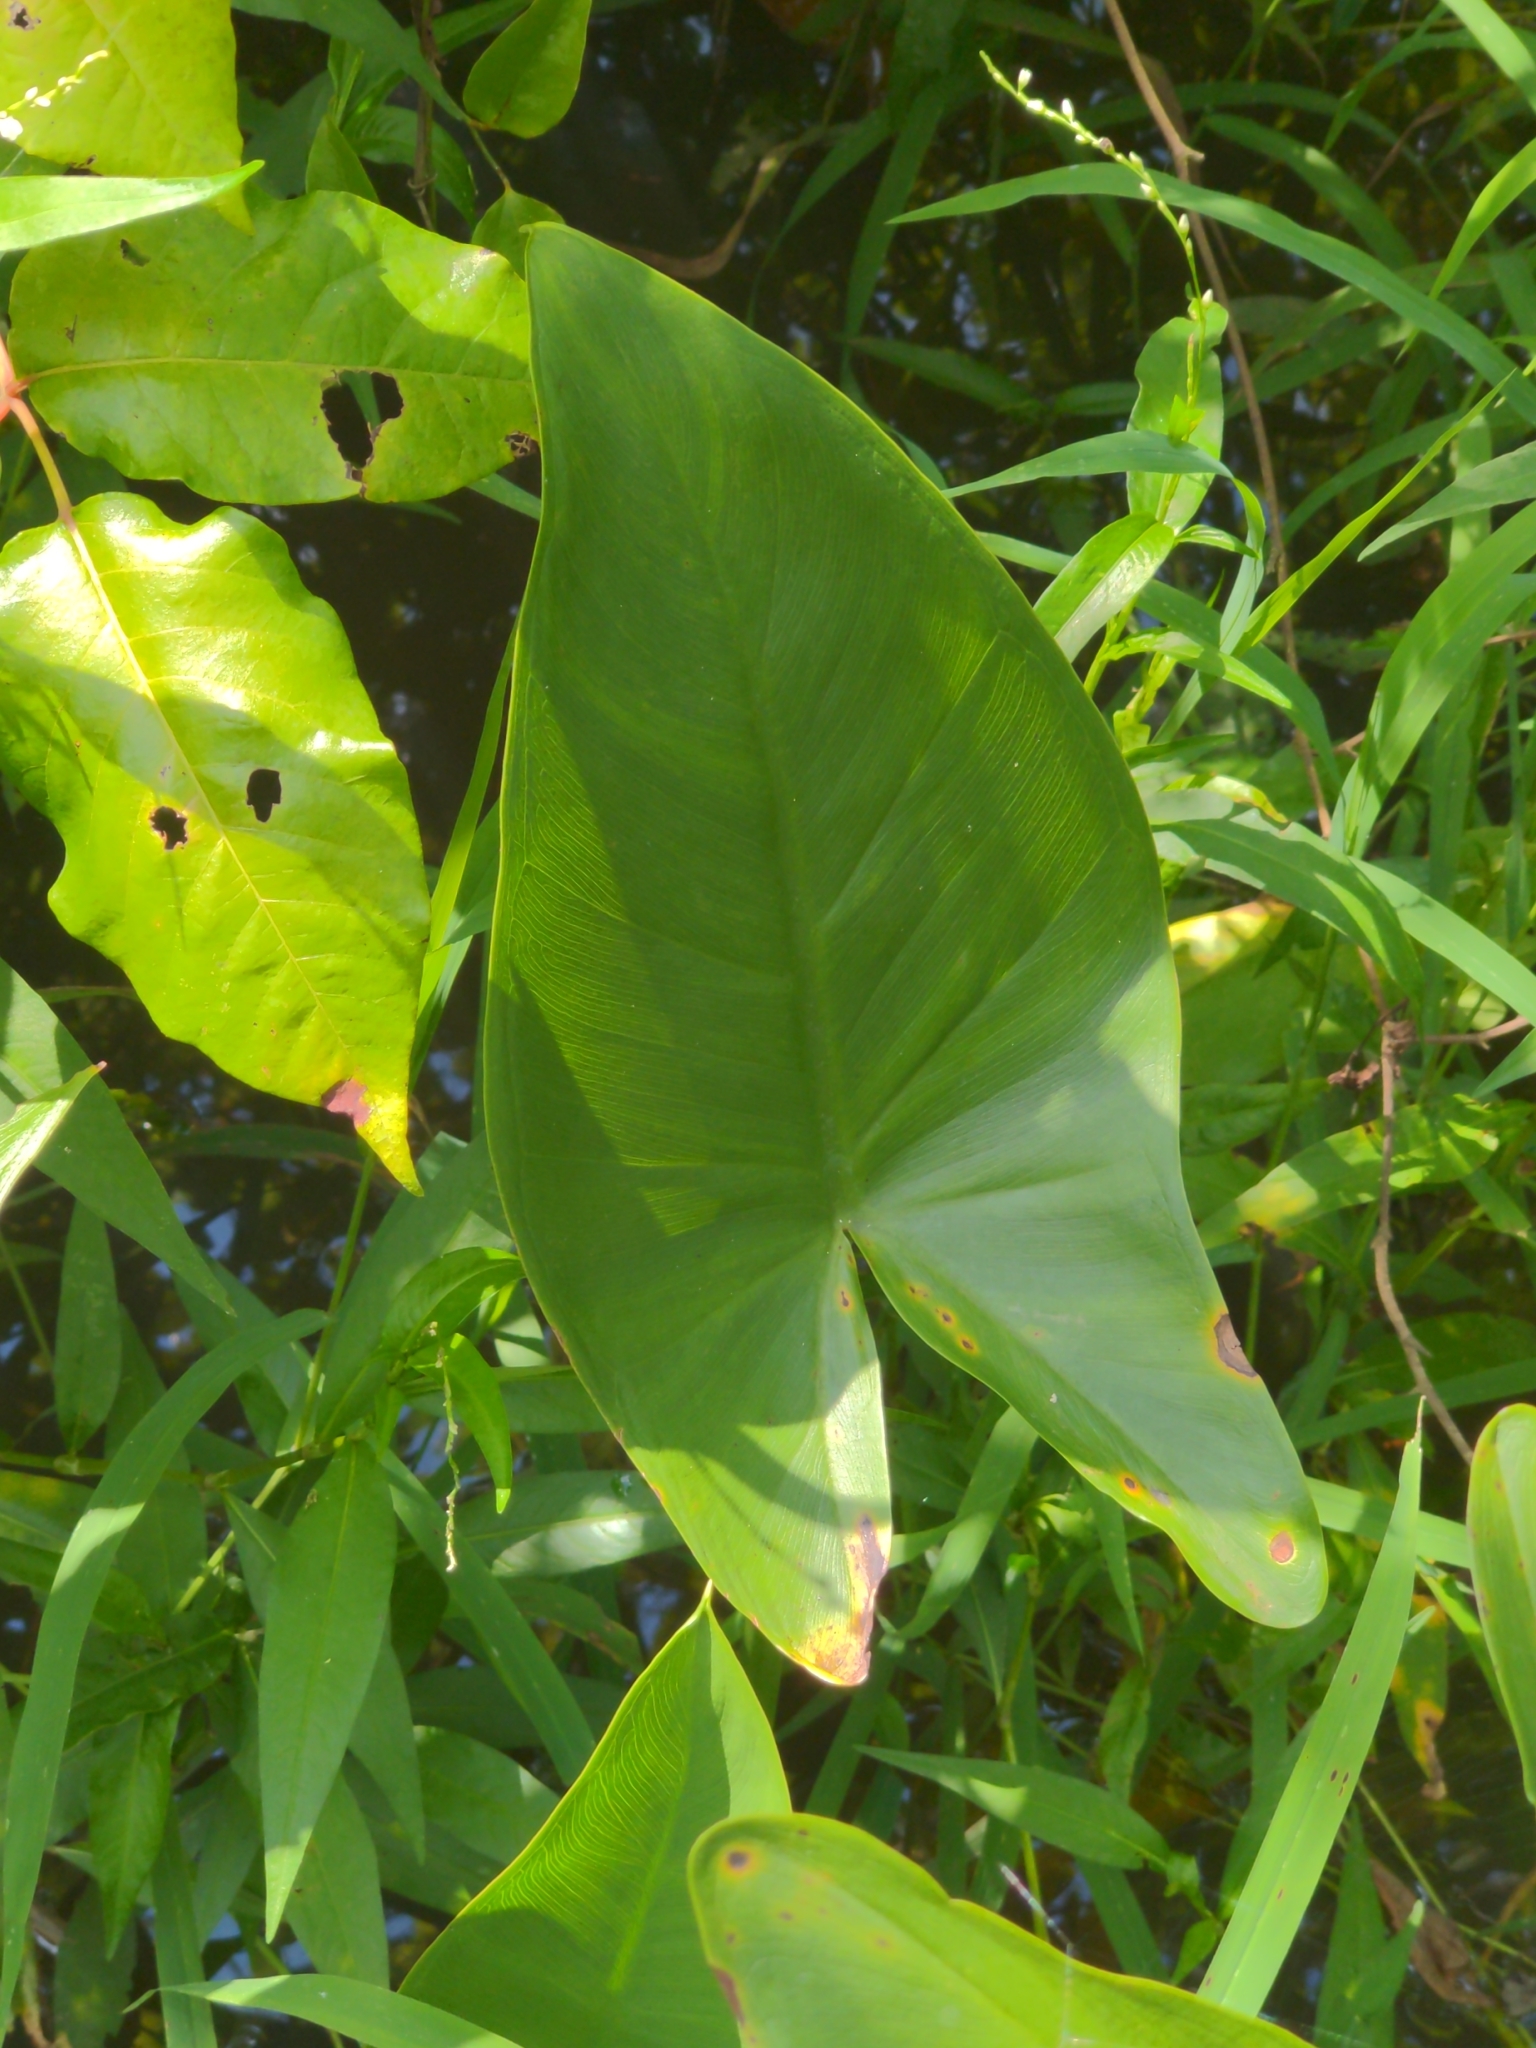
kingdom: Plantae
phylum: Tracheophyta
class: Liliopsida
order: Alismatales
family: Araceae
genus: Peltandra
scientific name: Peltandra virginica
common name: Arrow arum
